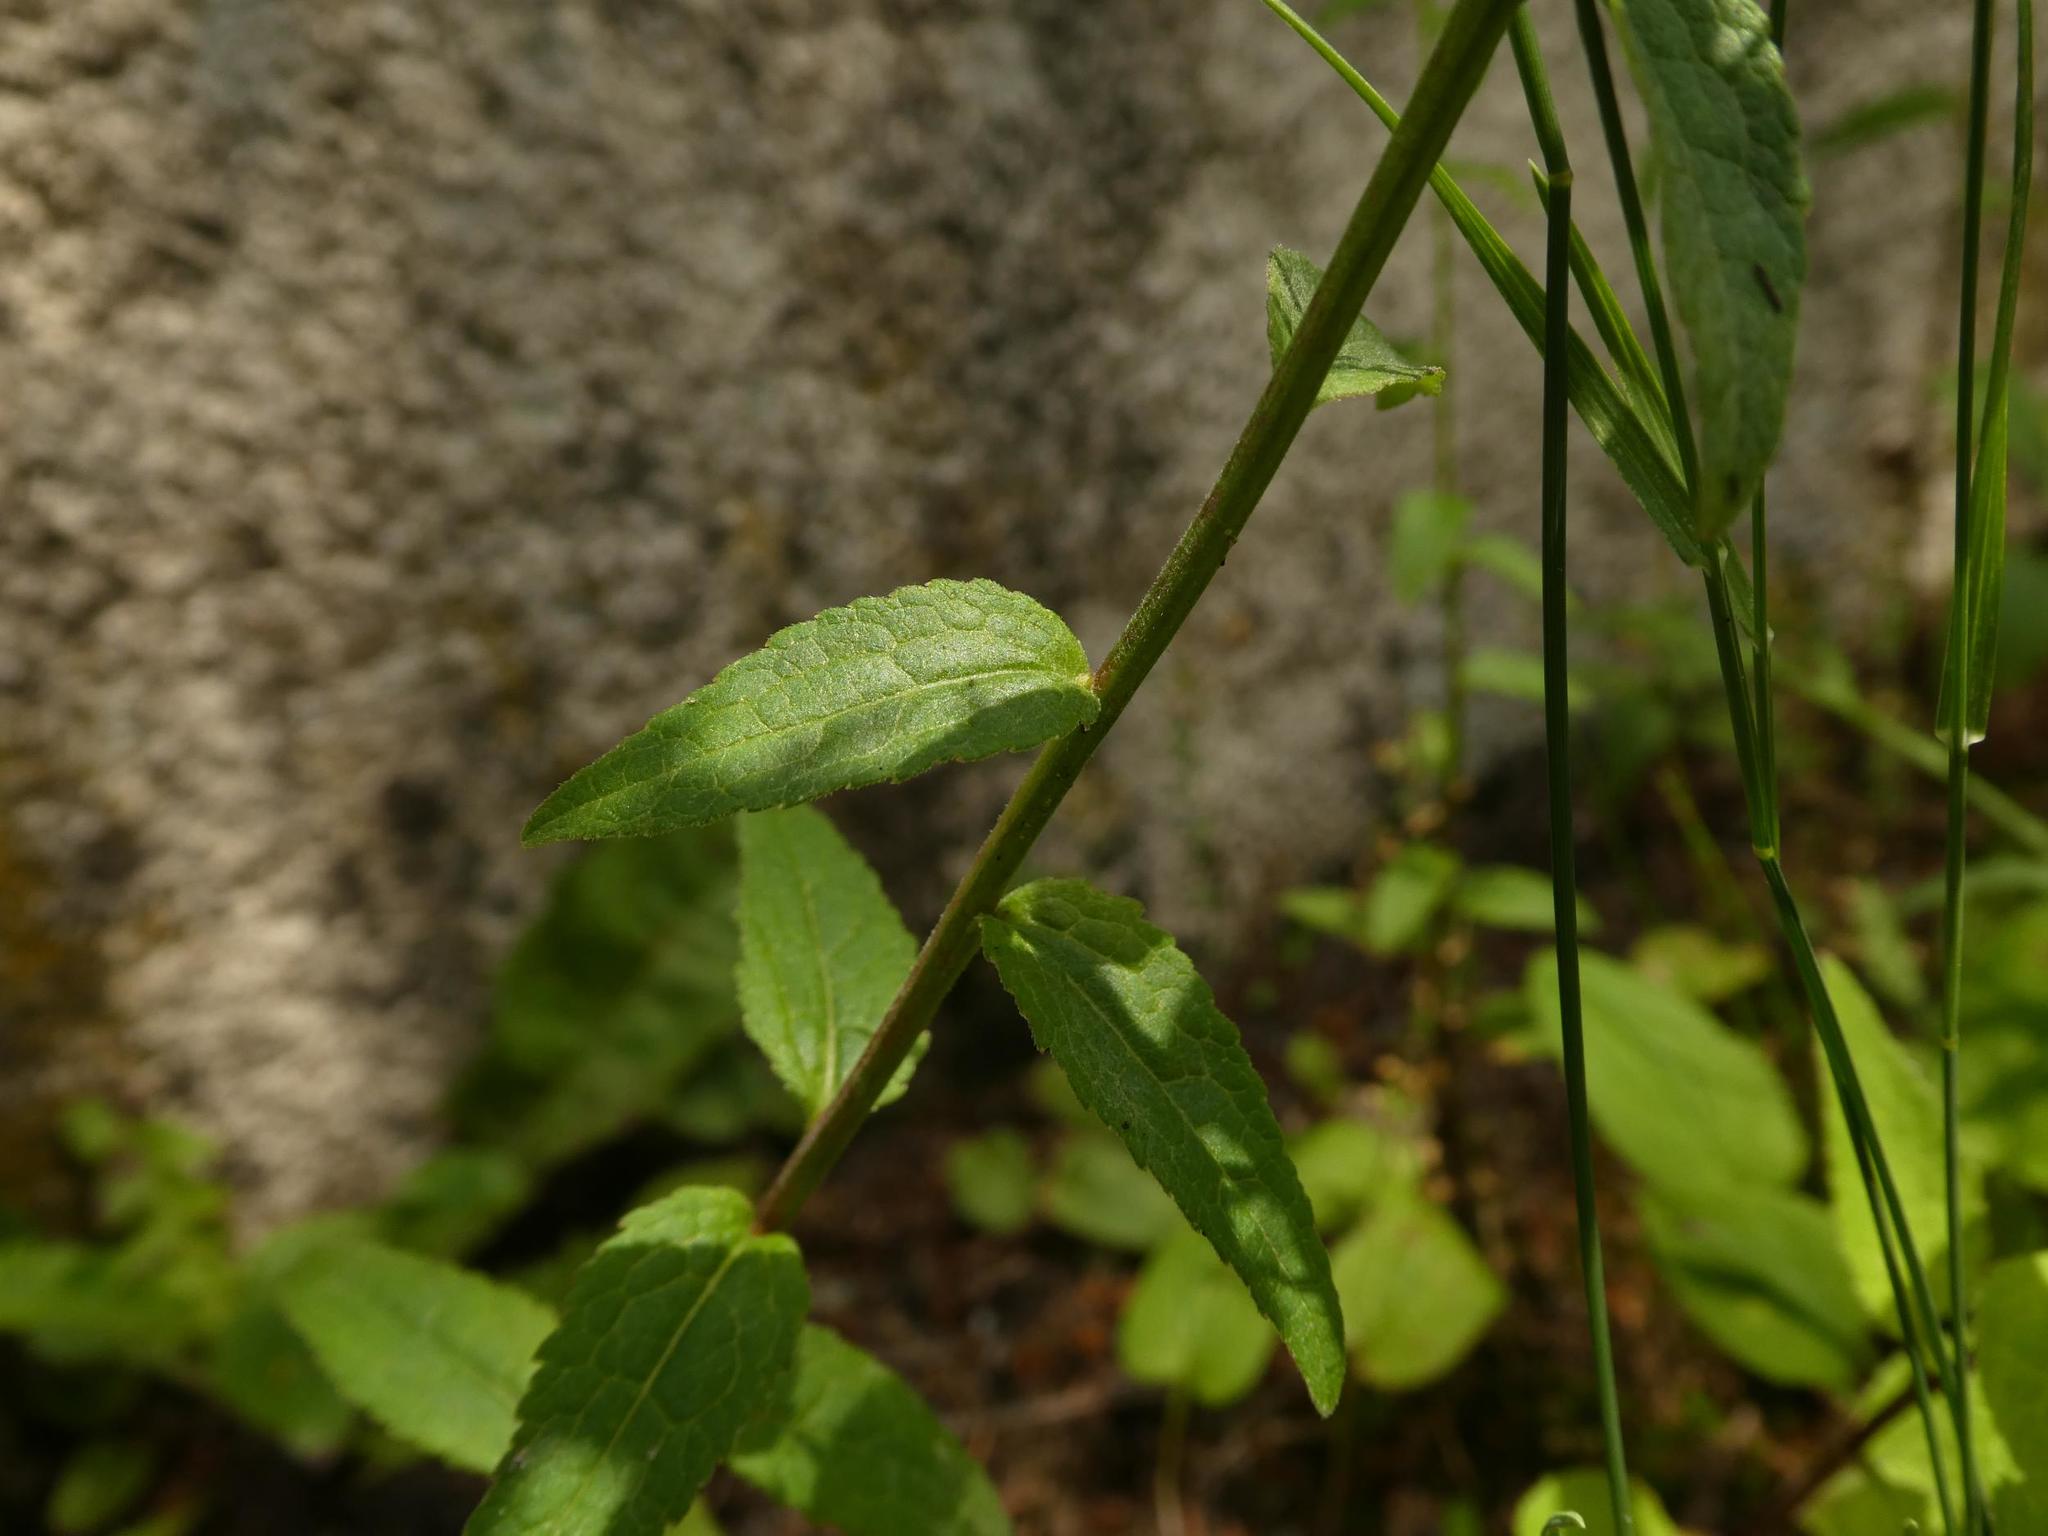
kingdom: Plantae
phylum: Tracheophyta
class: Magnoliopsida
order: Asterales
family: Campanulaceae
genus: Campanula
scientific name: Campanula rapunculoides
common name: Creeping bellflower
